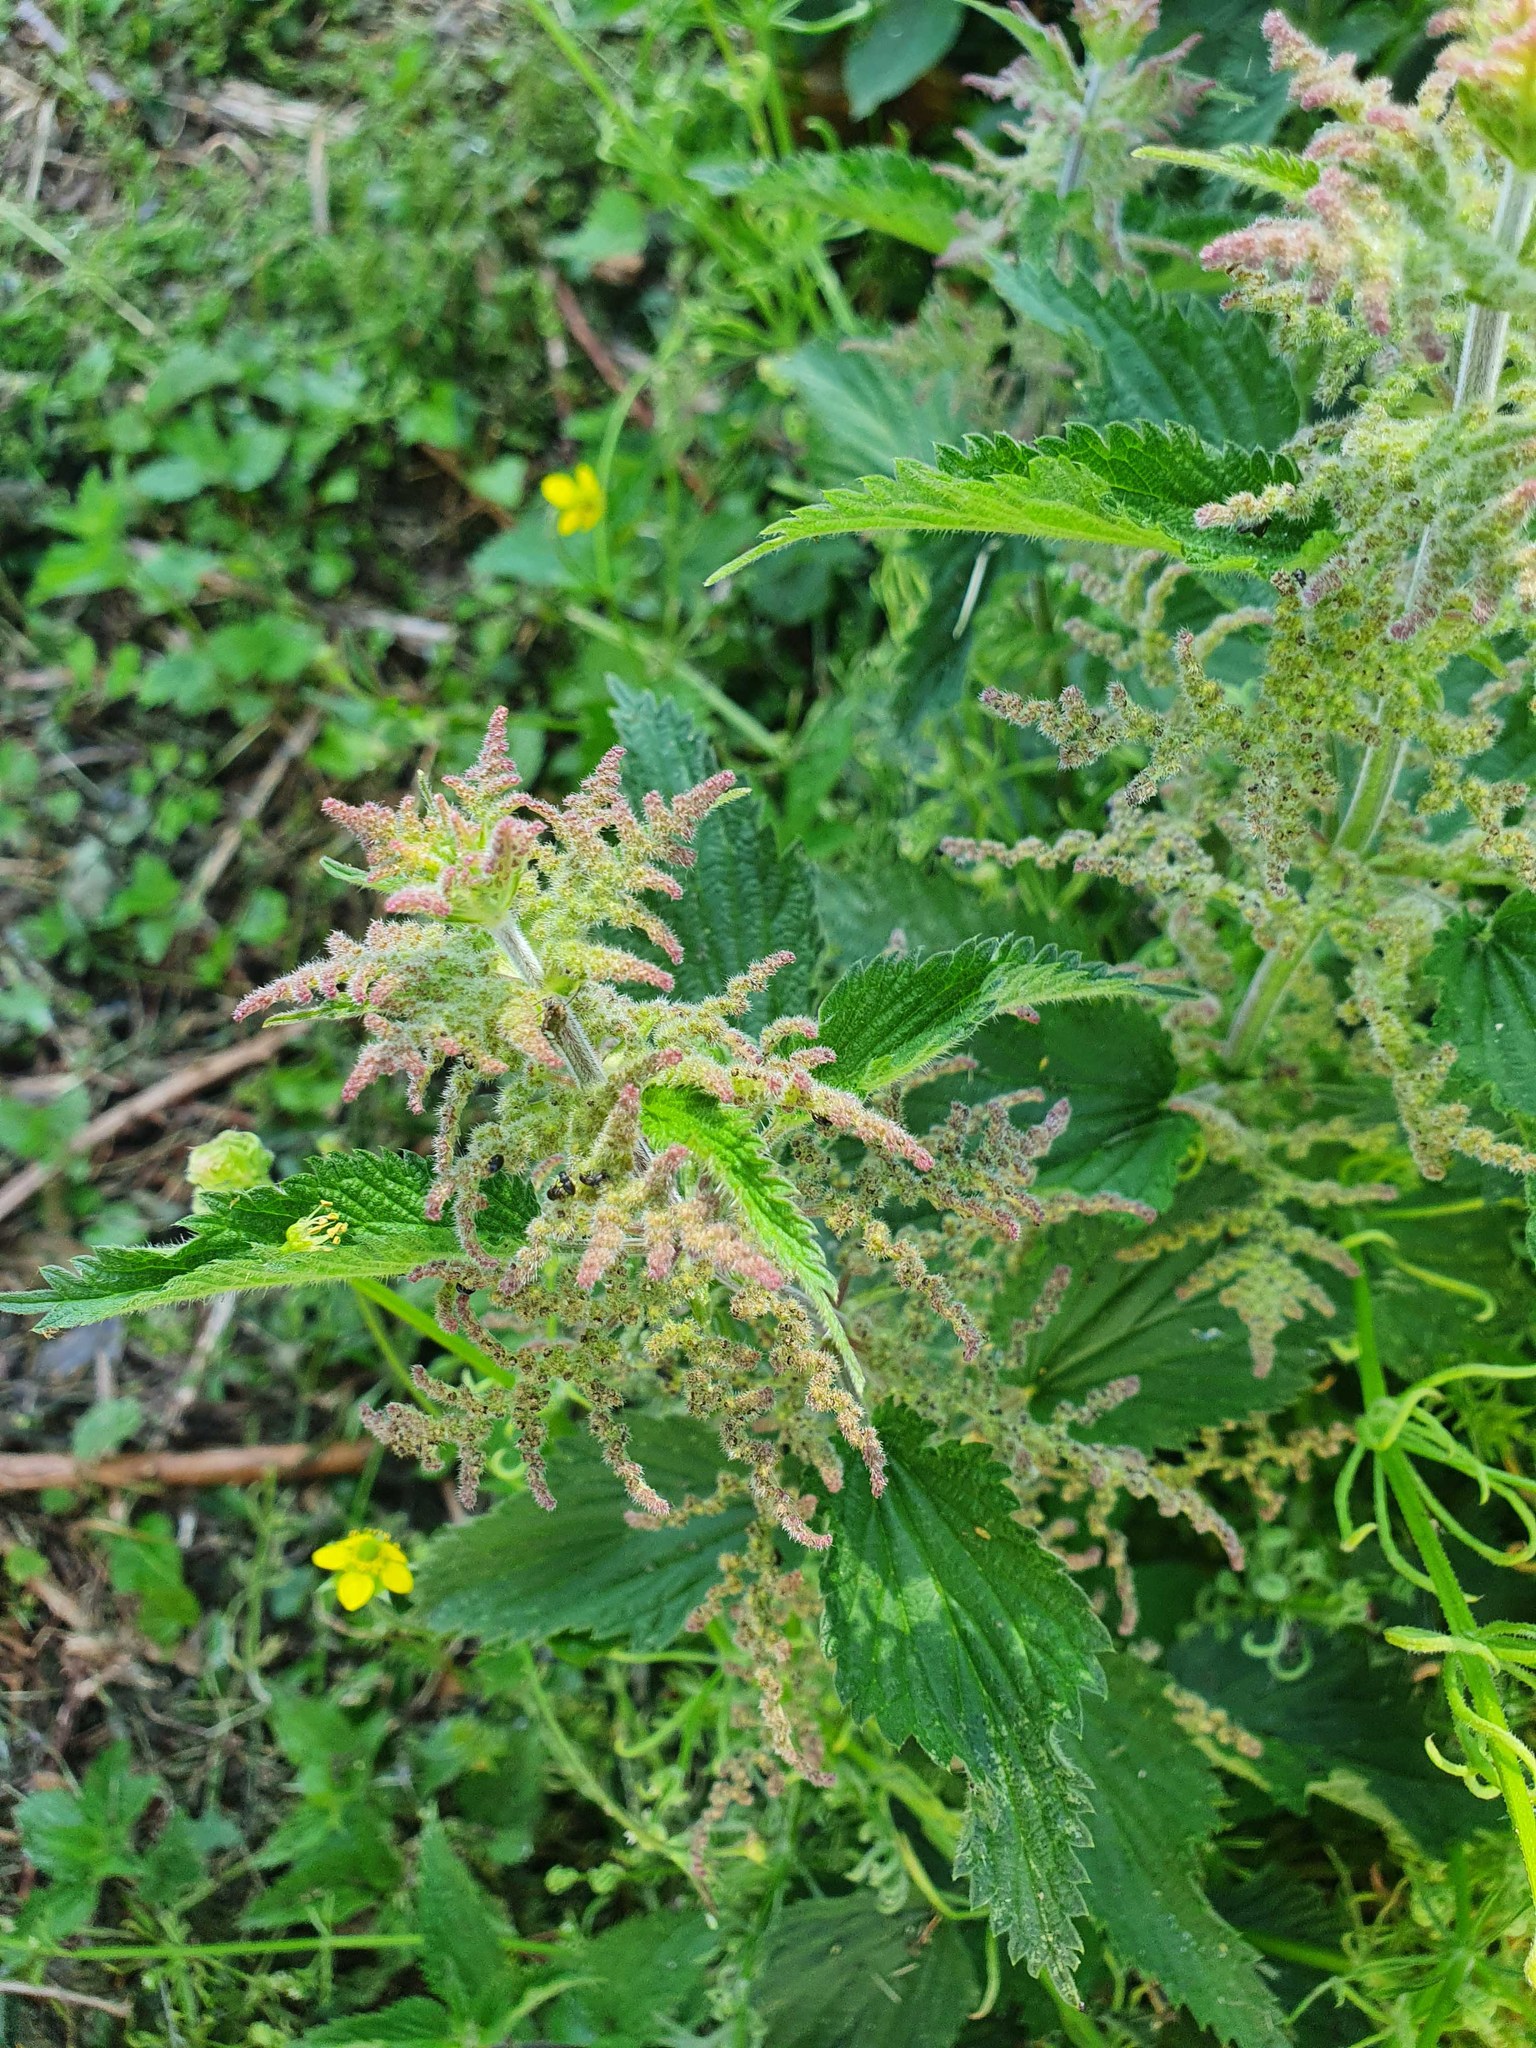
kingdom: Plantae
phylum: Tracheophyta
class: Magnoliopsida
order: Rosales
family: Urticaceae
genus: Urtica
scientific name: Urtica dioica
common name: Common nettle
